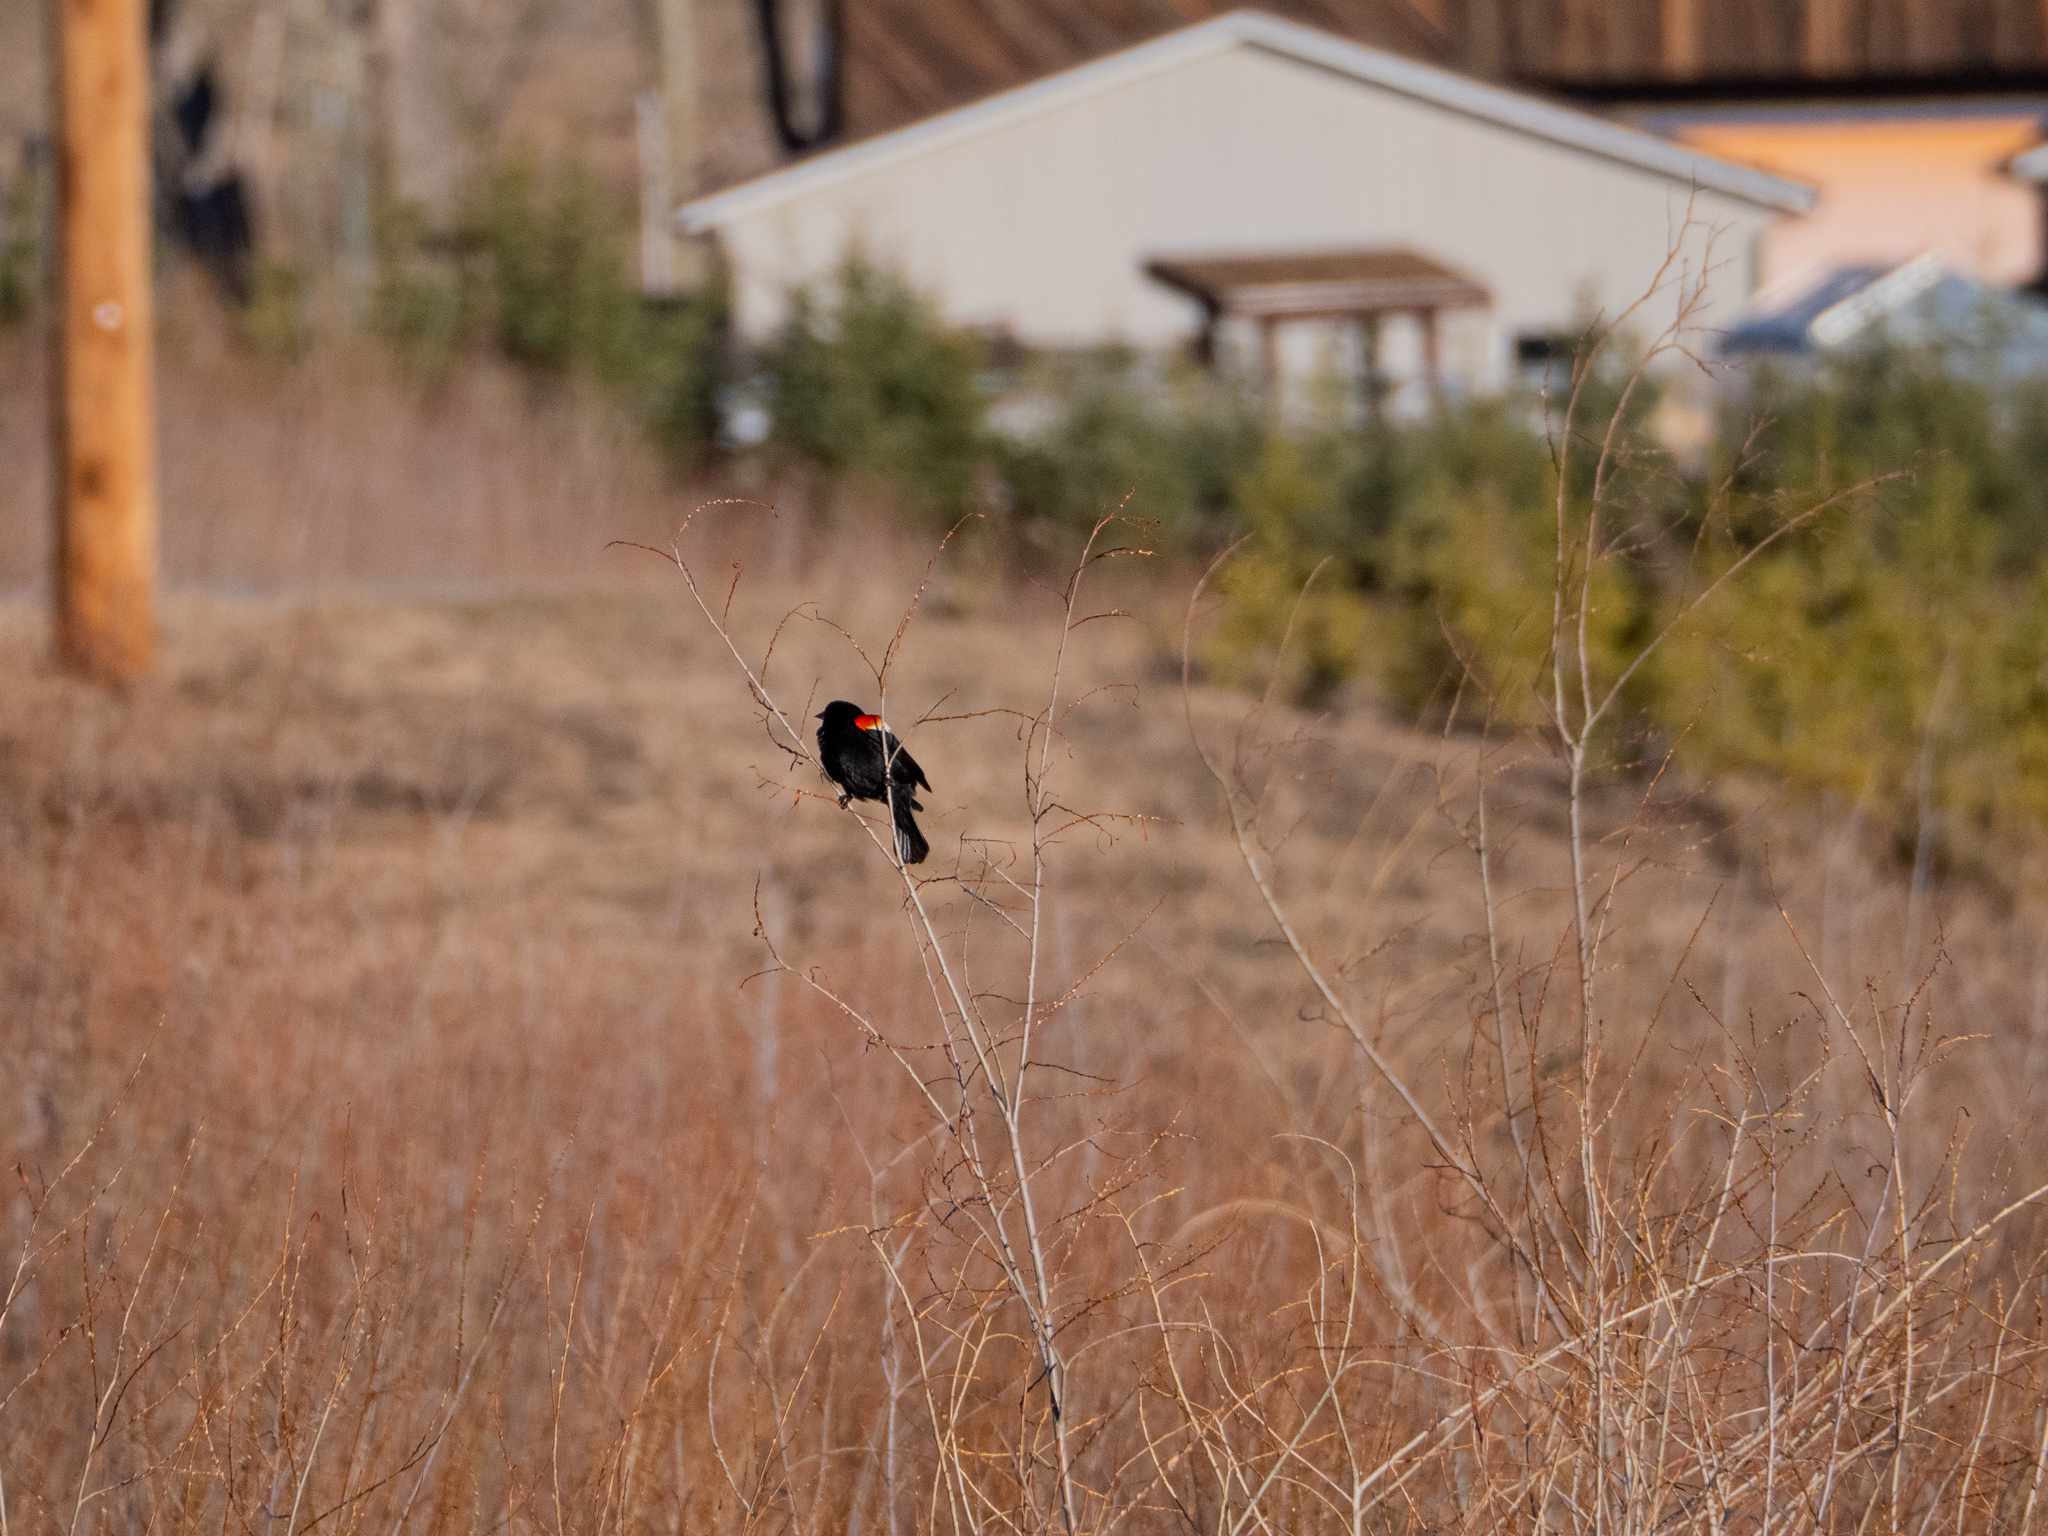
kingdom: Animalia
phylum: Chordata
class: Aves
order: Passeriformes
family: Icteridae
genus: Agelaius
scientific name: Agelaius phoeniceus
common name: Red-winged blackbird
